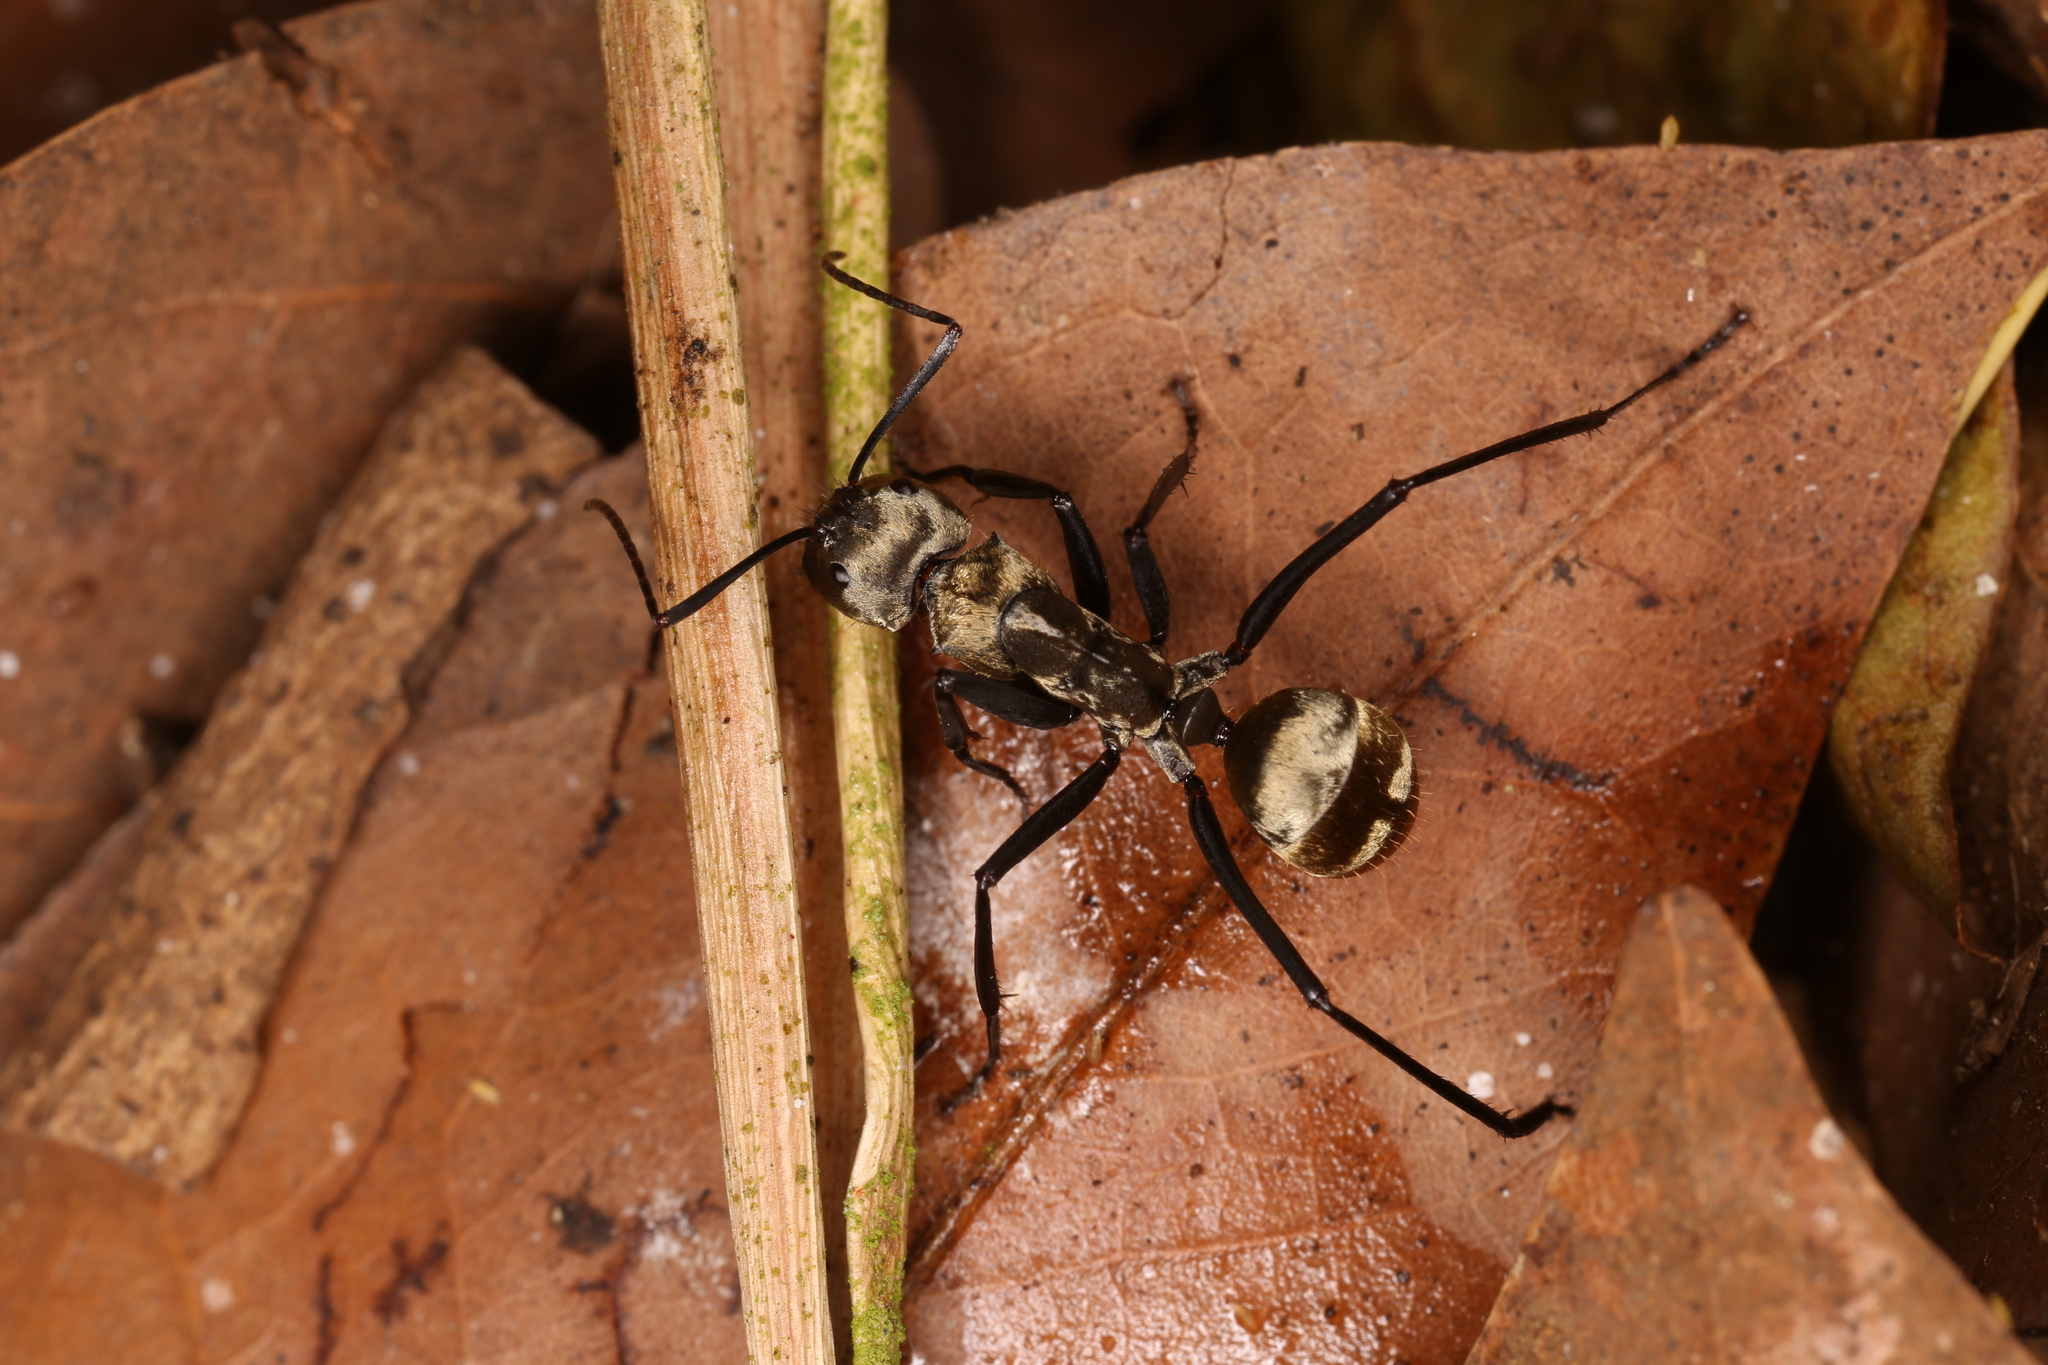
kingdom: Animalia
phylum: Arthropoda
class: Insecta
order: Hymenoptera
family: Formicidae
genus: Camponotus
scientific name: Camponotus sericeiventris
